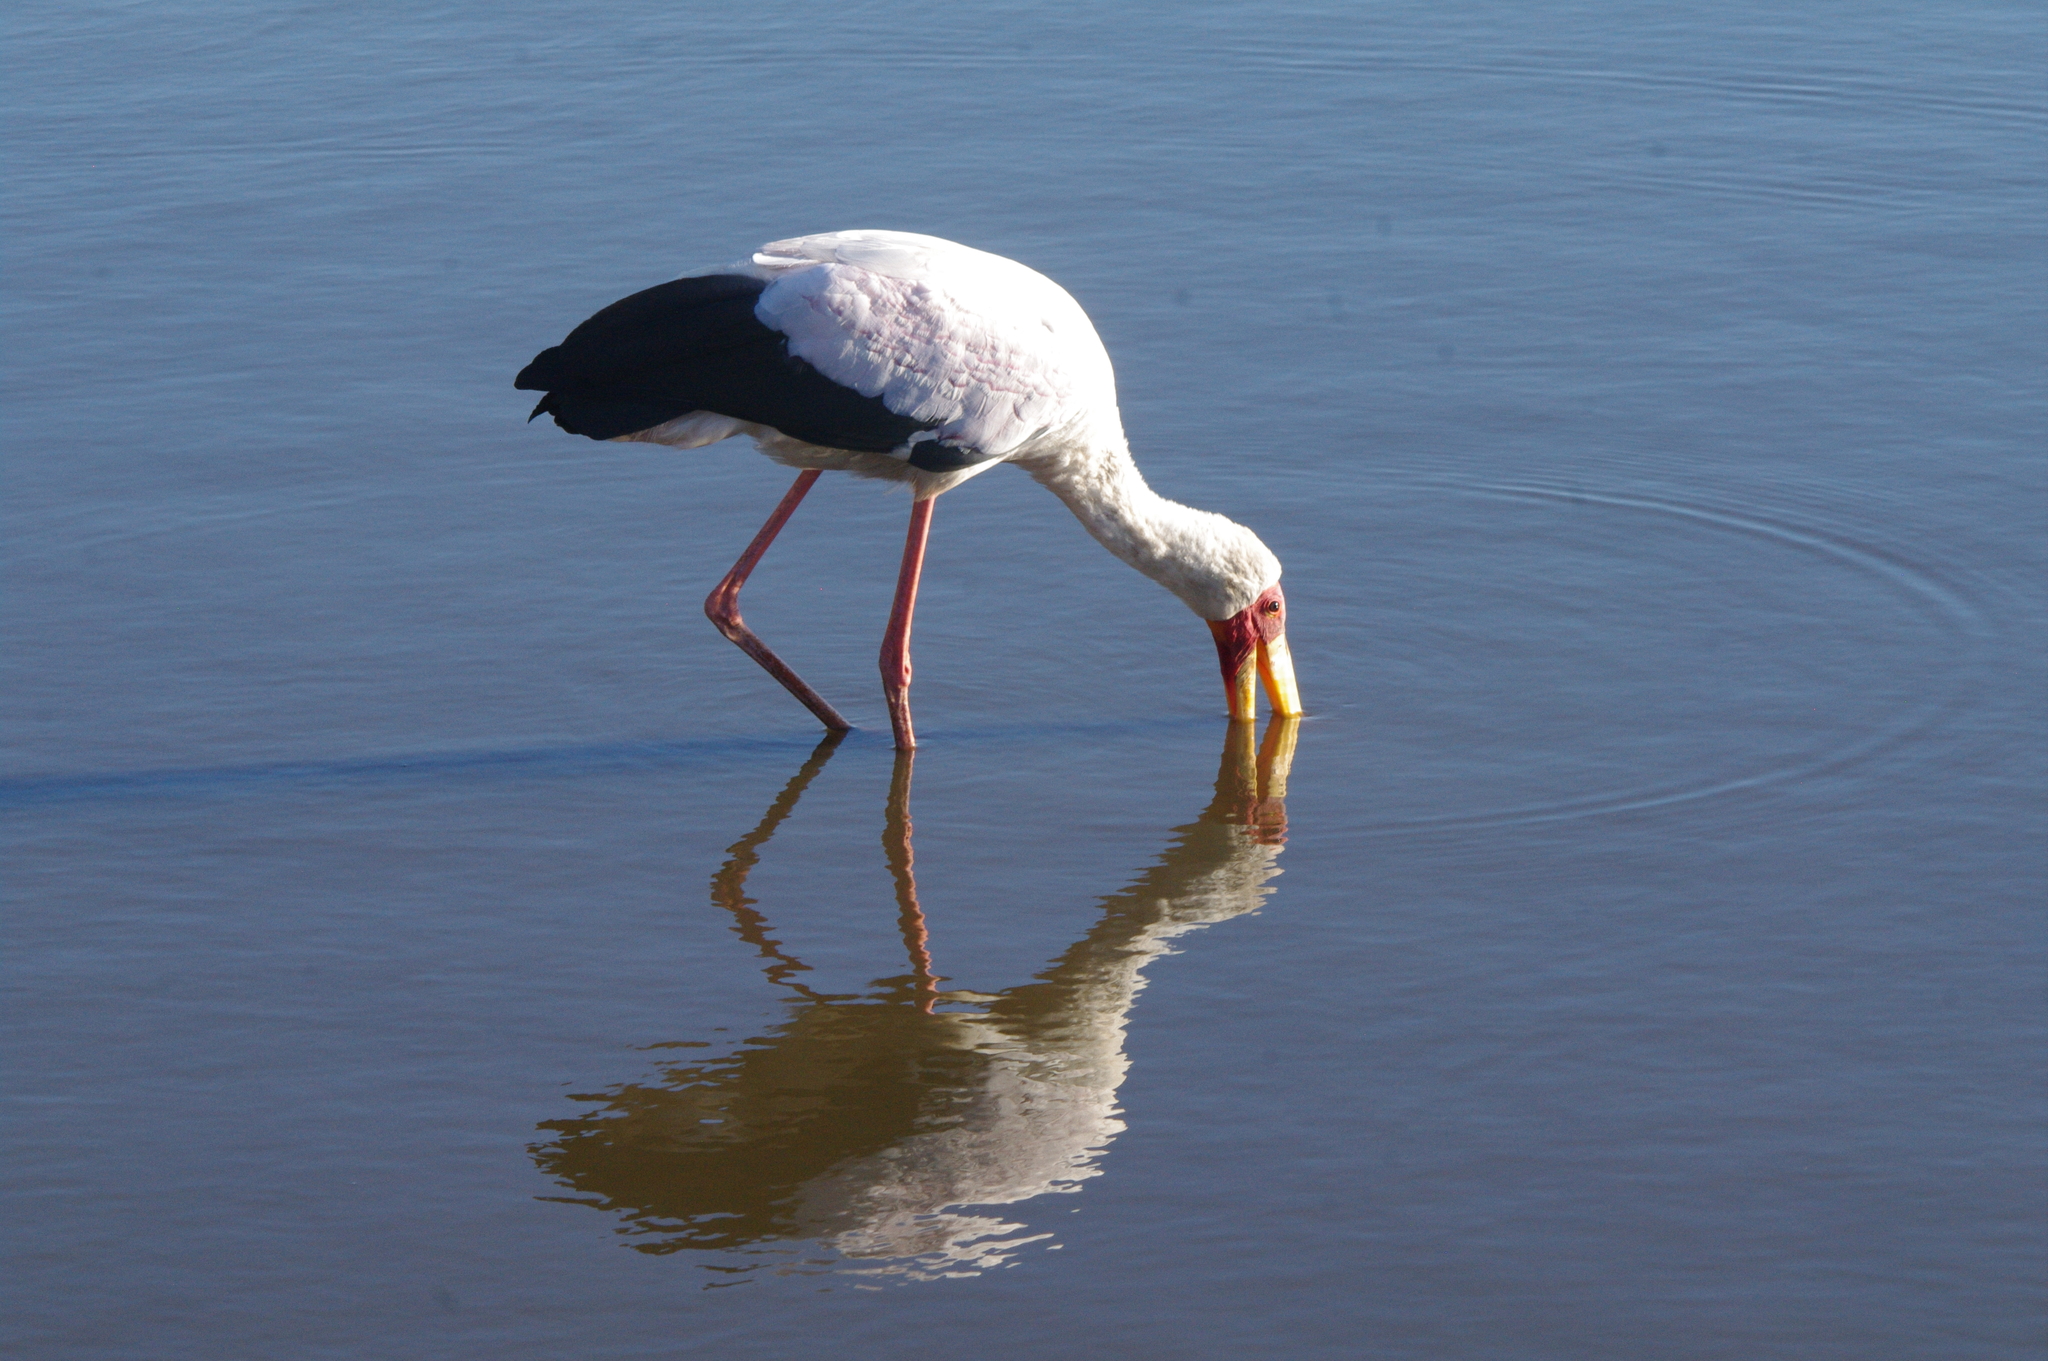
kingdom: Animalia
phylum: Chordata
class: Aves
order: Ciconiiformes
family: Ciconiidae
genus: Mycteria
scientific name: Mycteria ibis
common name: Yellow-billed stork
